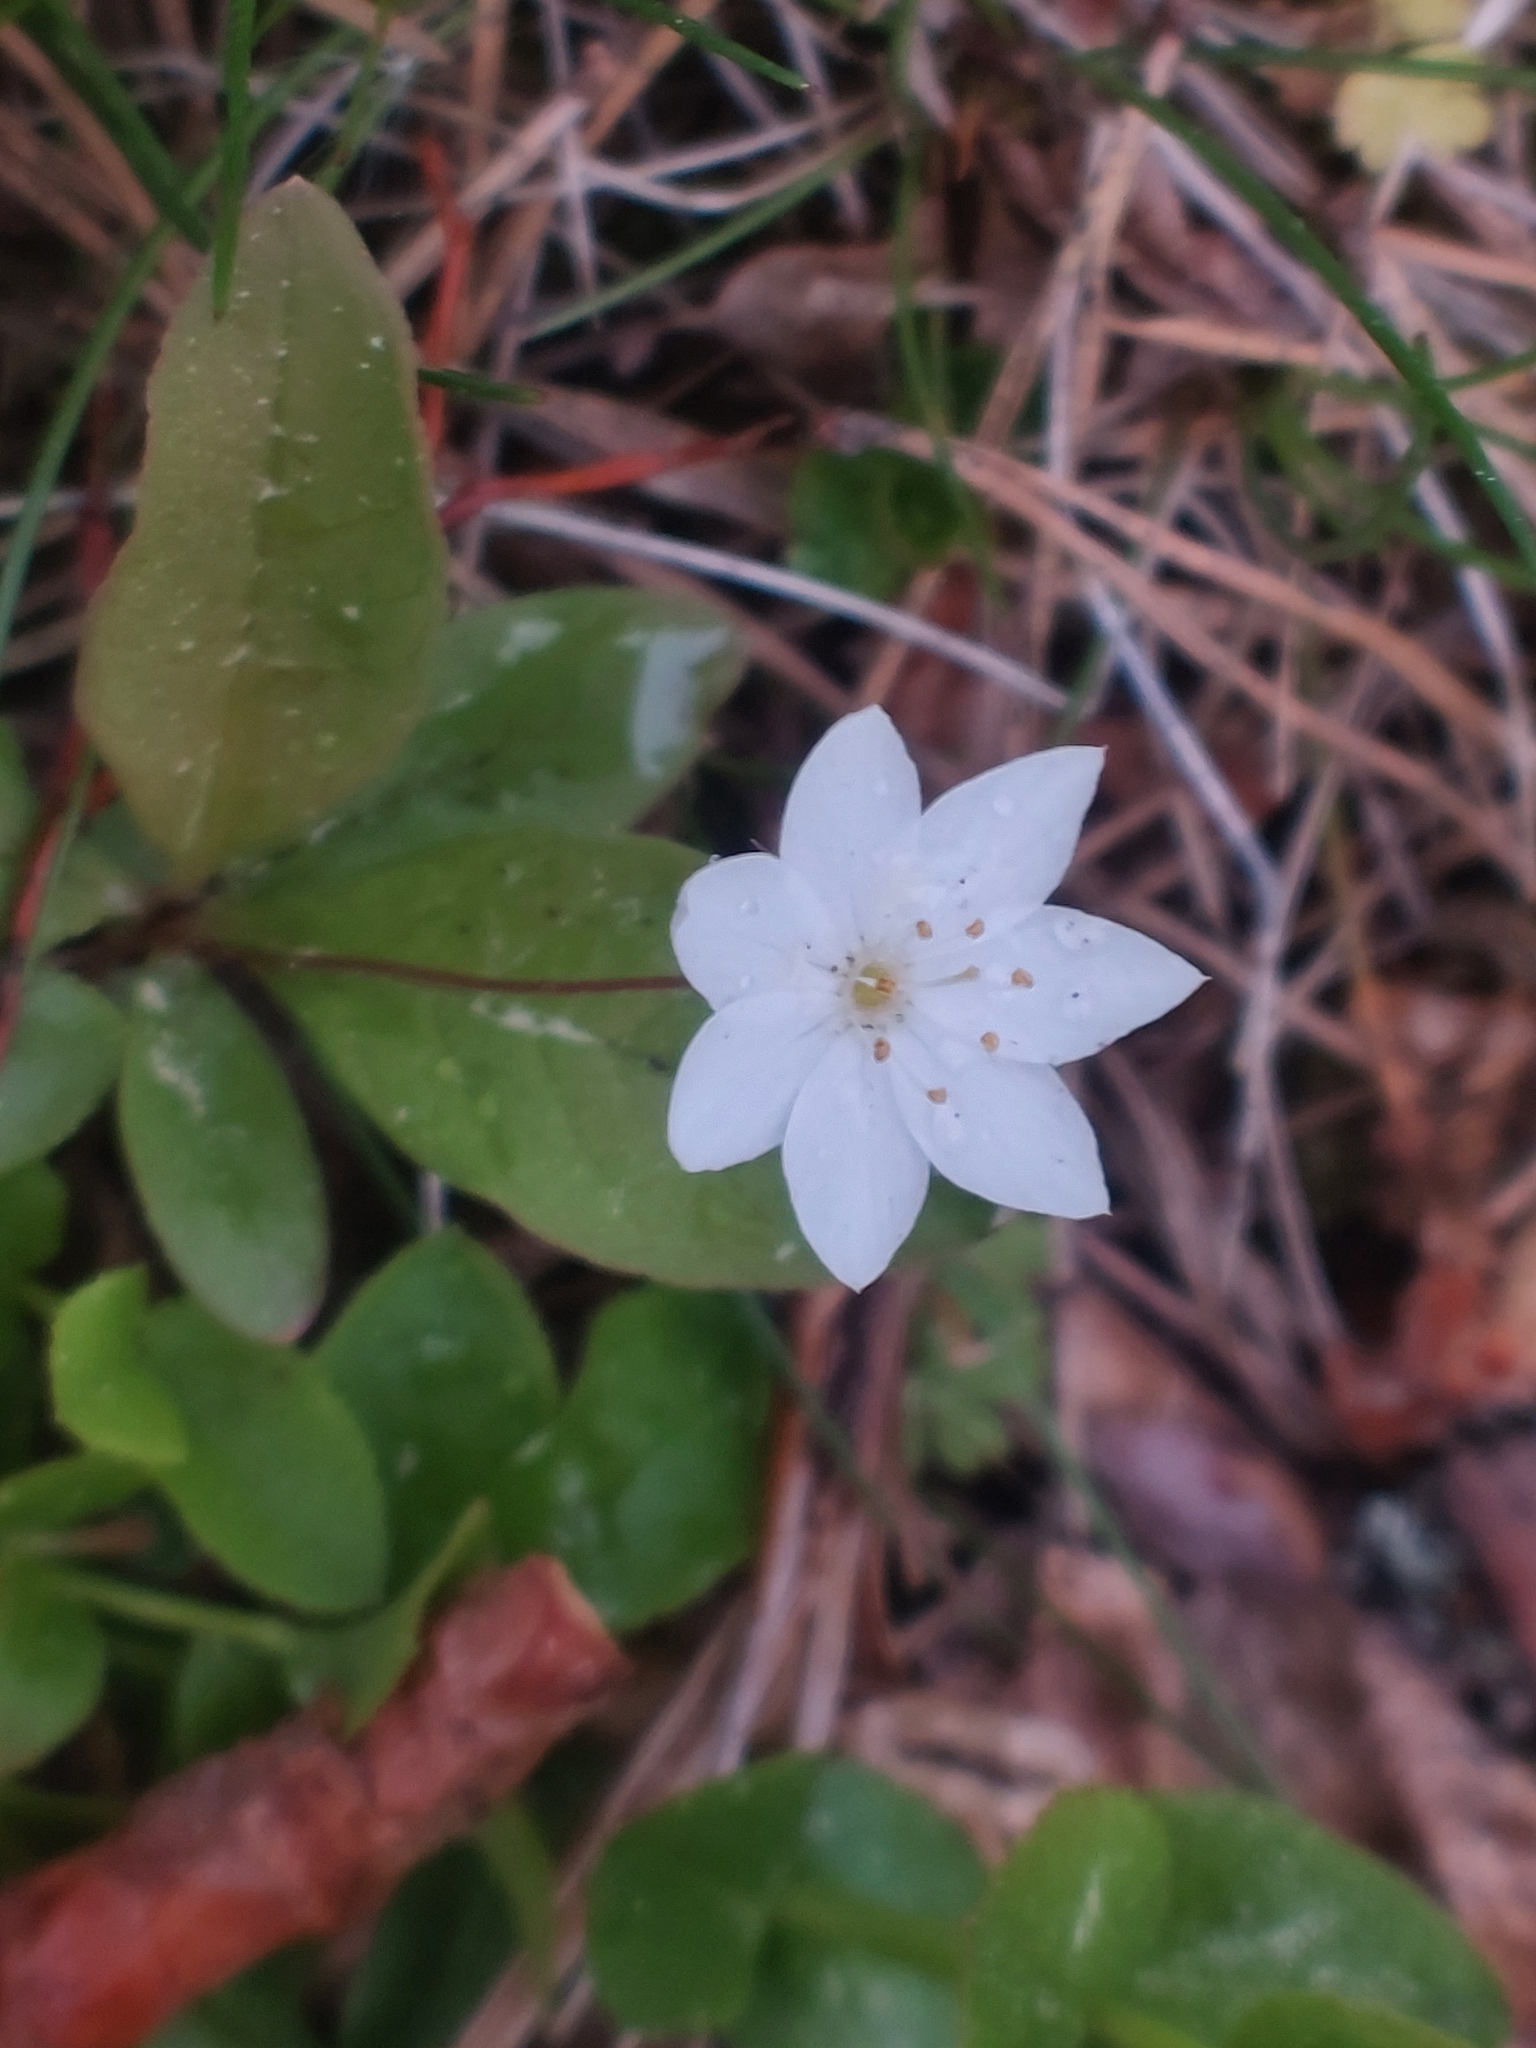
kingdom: Plantae
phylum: Tracheophyta
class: Magnoliopsida
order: Ericales
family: Primulaceae
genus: Lysimachia
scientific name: Lysimachia europaea
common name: Arctic starflower
